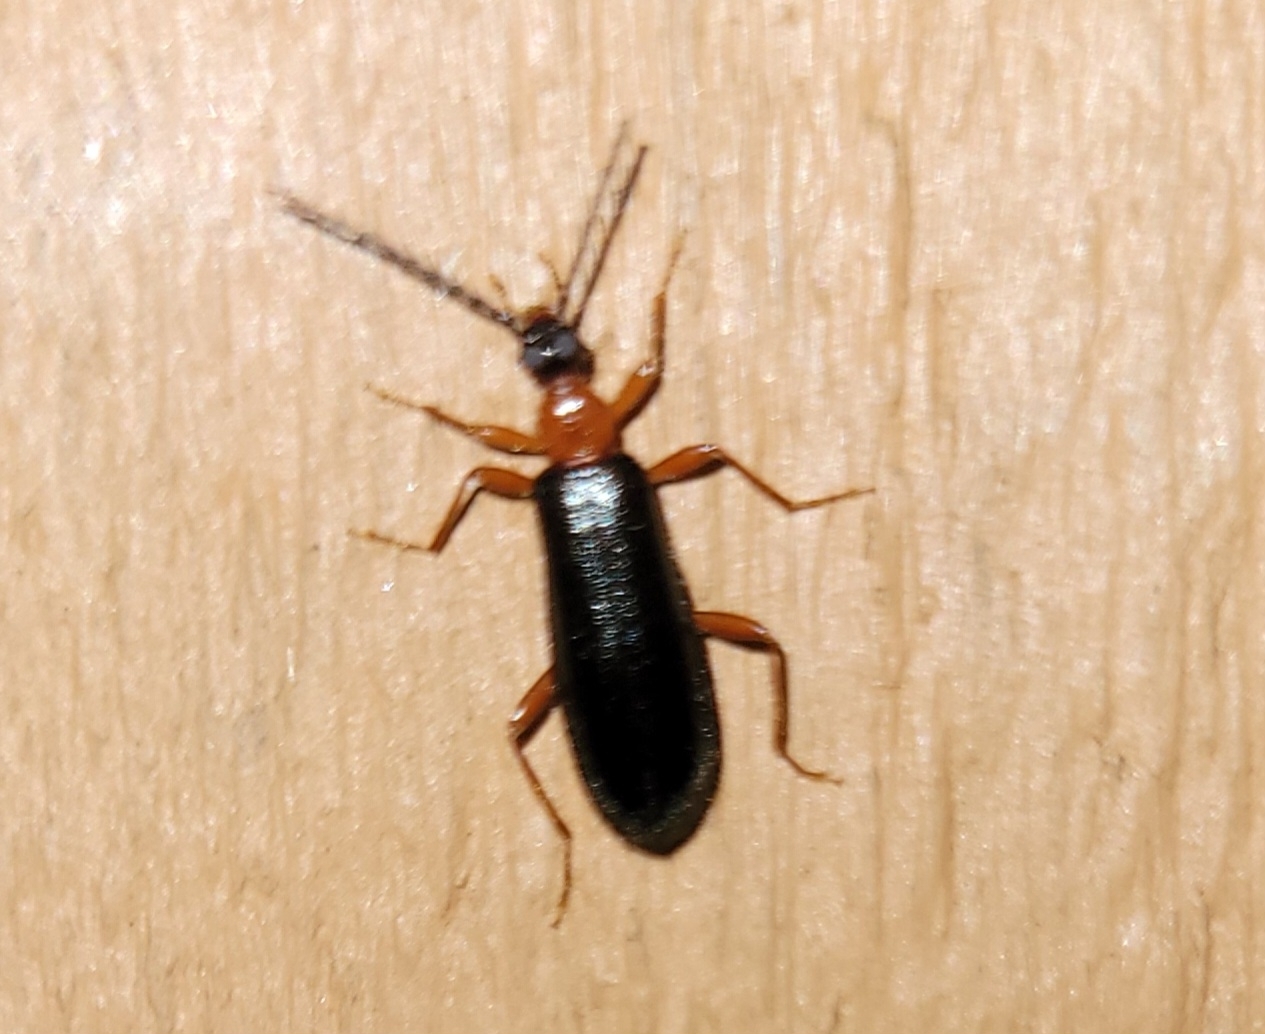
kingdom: Animalia
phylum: Arthropoda
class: Insecta
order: Coleoptera
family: Pyrochroidae
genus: Dendroides
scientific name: Dendroides canadensis
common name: Canada fire-colored beetle
